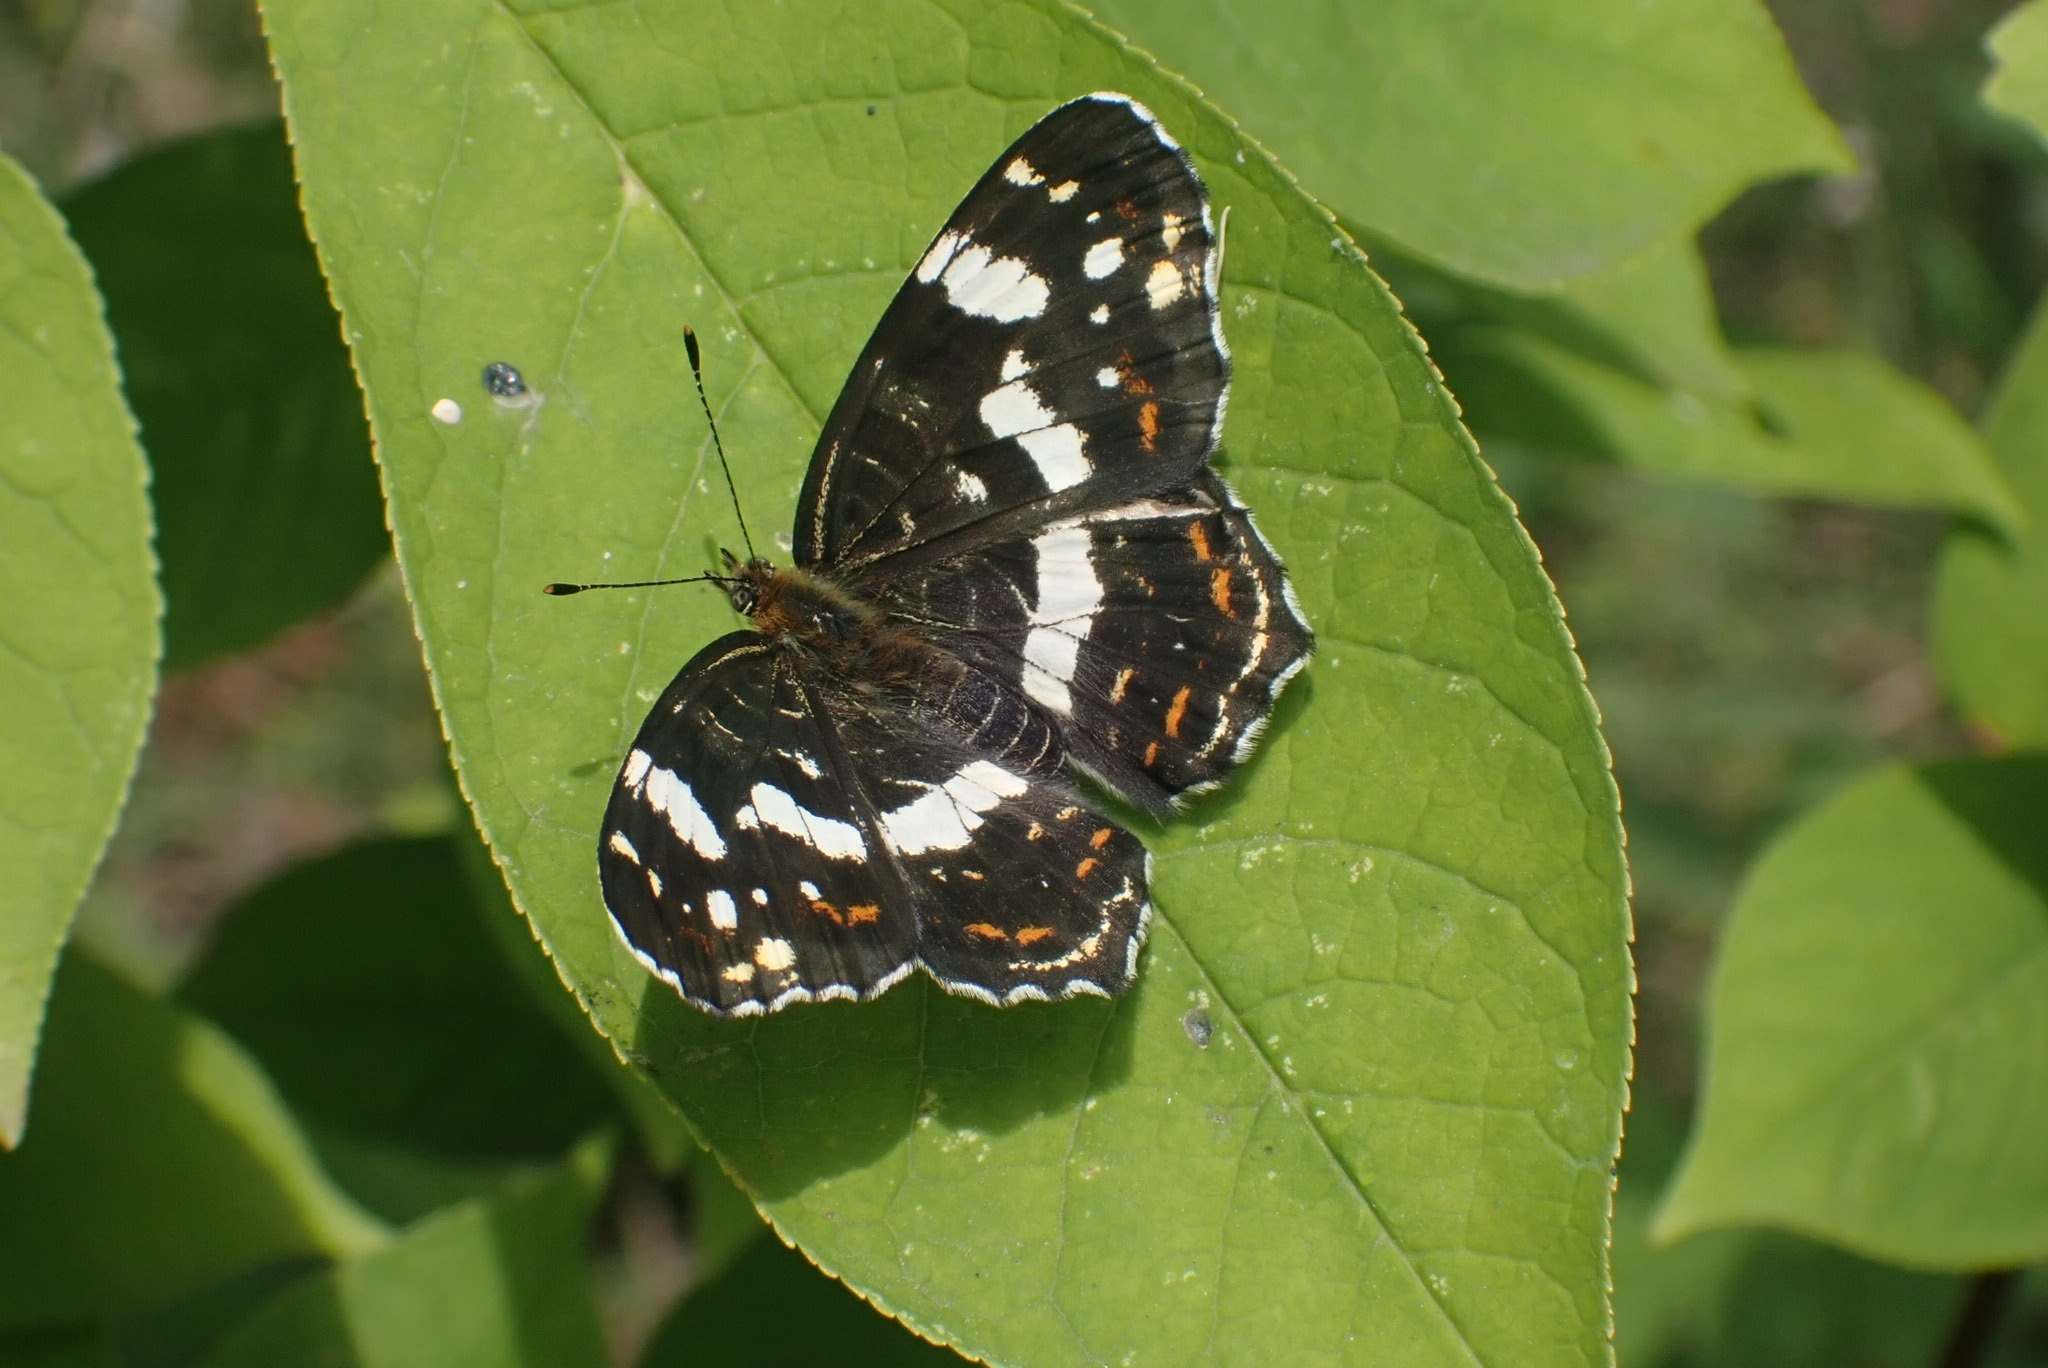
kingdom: Animalia
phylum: Arthropoda
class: Insecta
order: Lepidoptera
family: Nymphalidae
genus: Araschnia
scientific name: Araschnia levana
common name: Map butterfly
